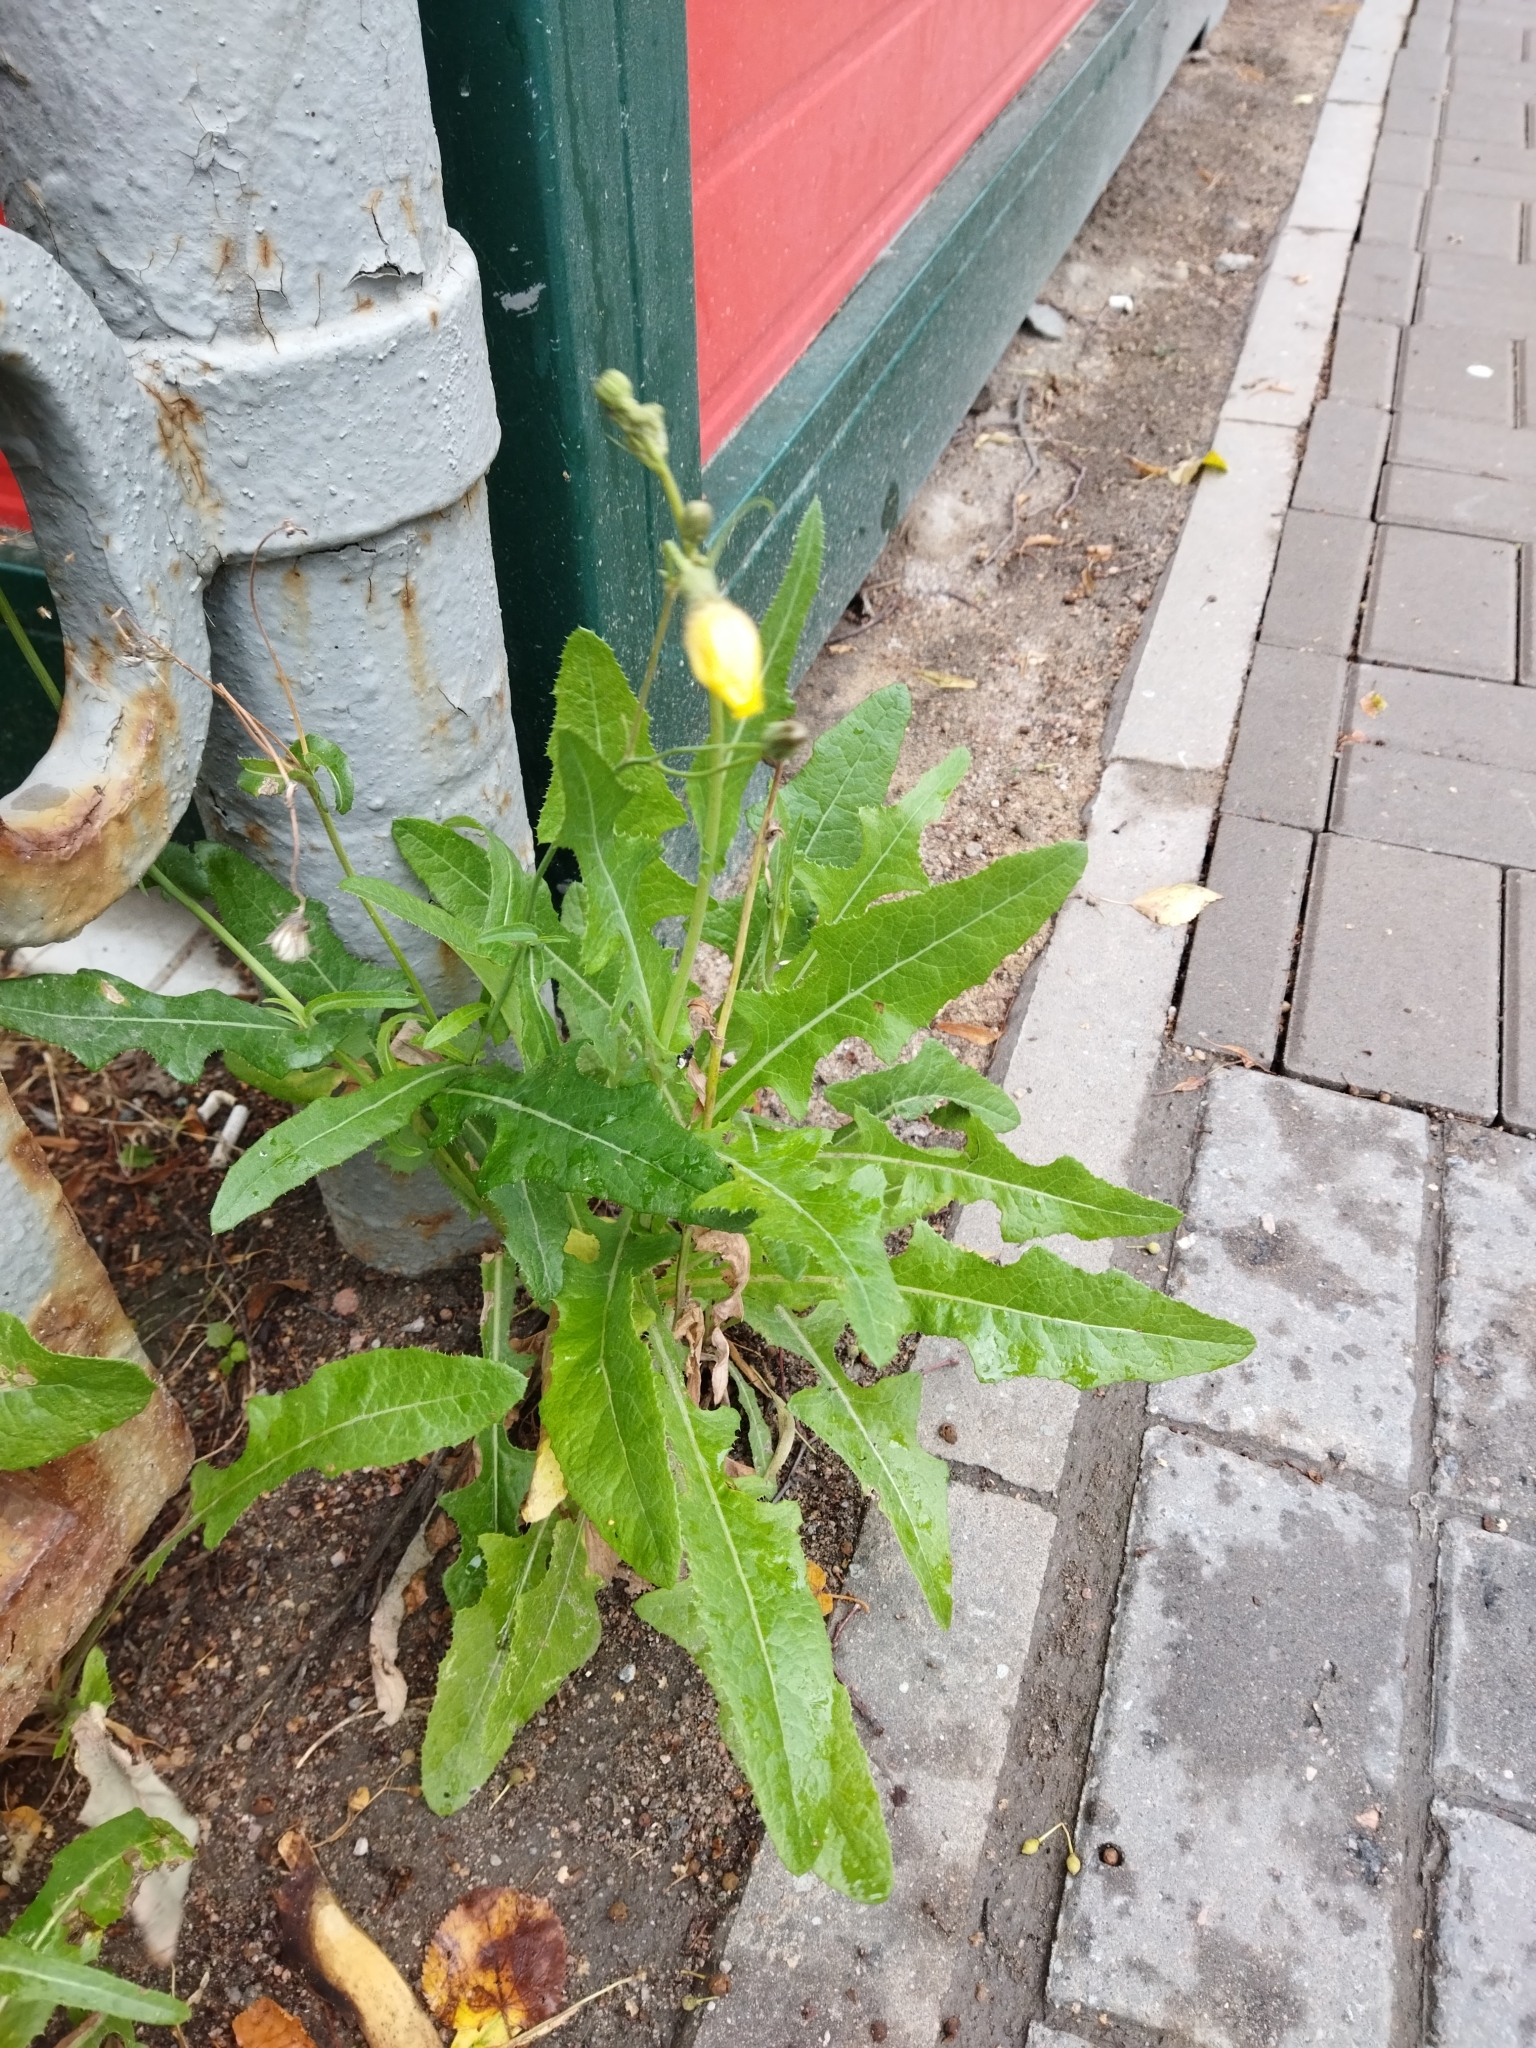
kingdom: Plantae
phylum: Tracheophyta
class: Magnoliopsida
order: Asterales
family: Asteraceae
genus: Sonchus
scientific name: Sonchus arvensis
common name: Perennial sow-thistle
